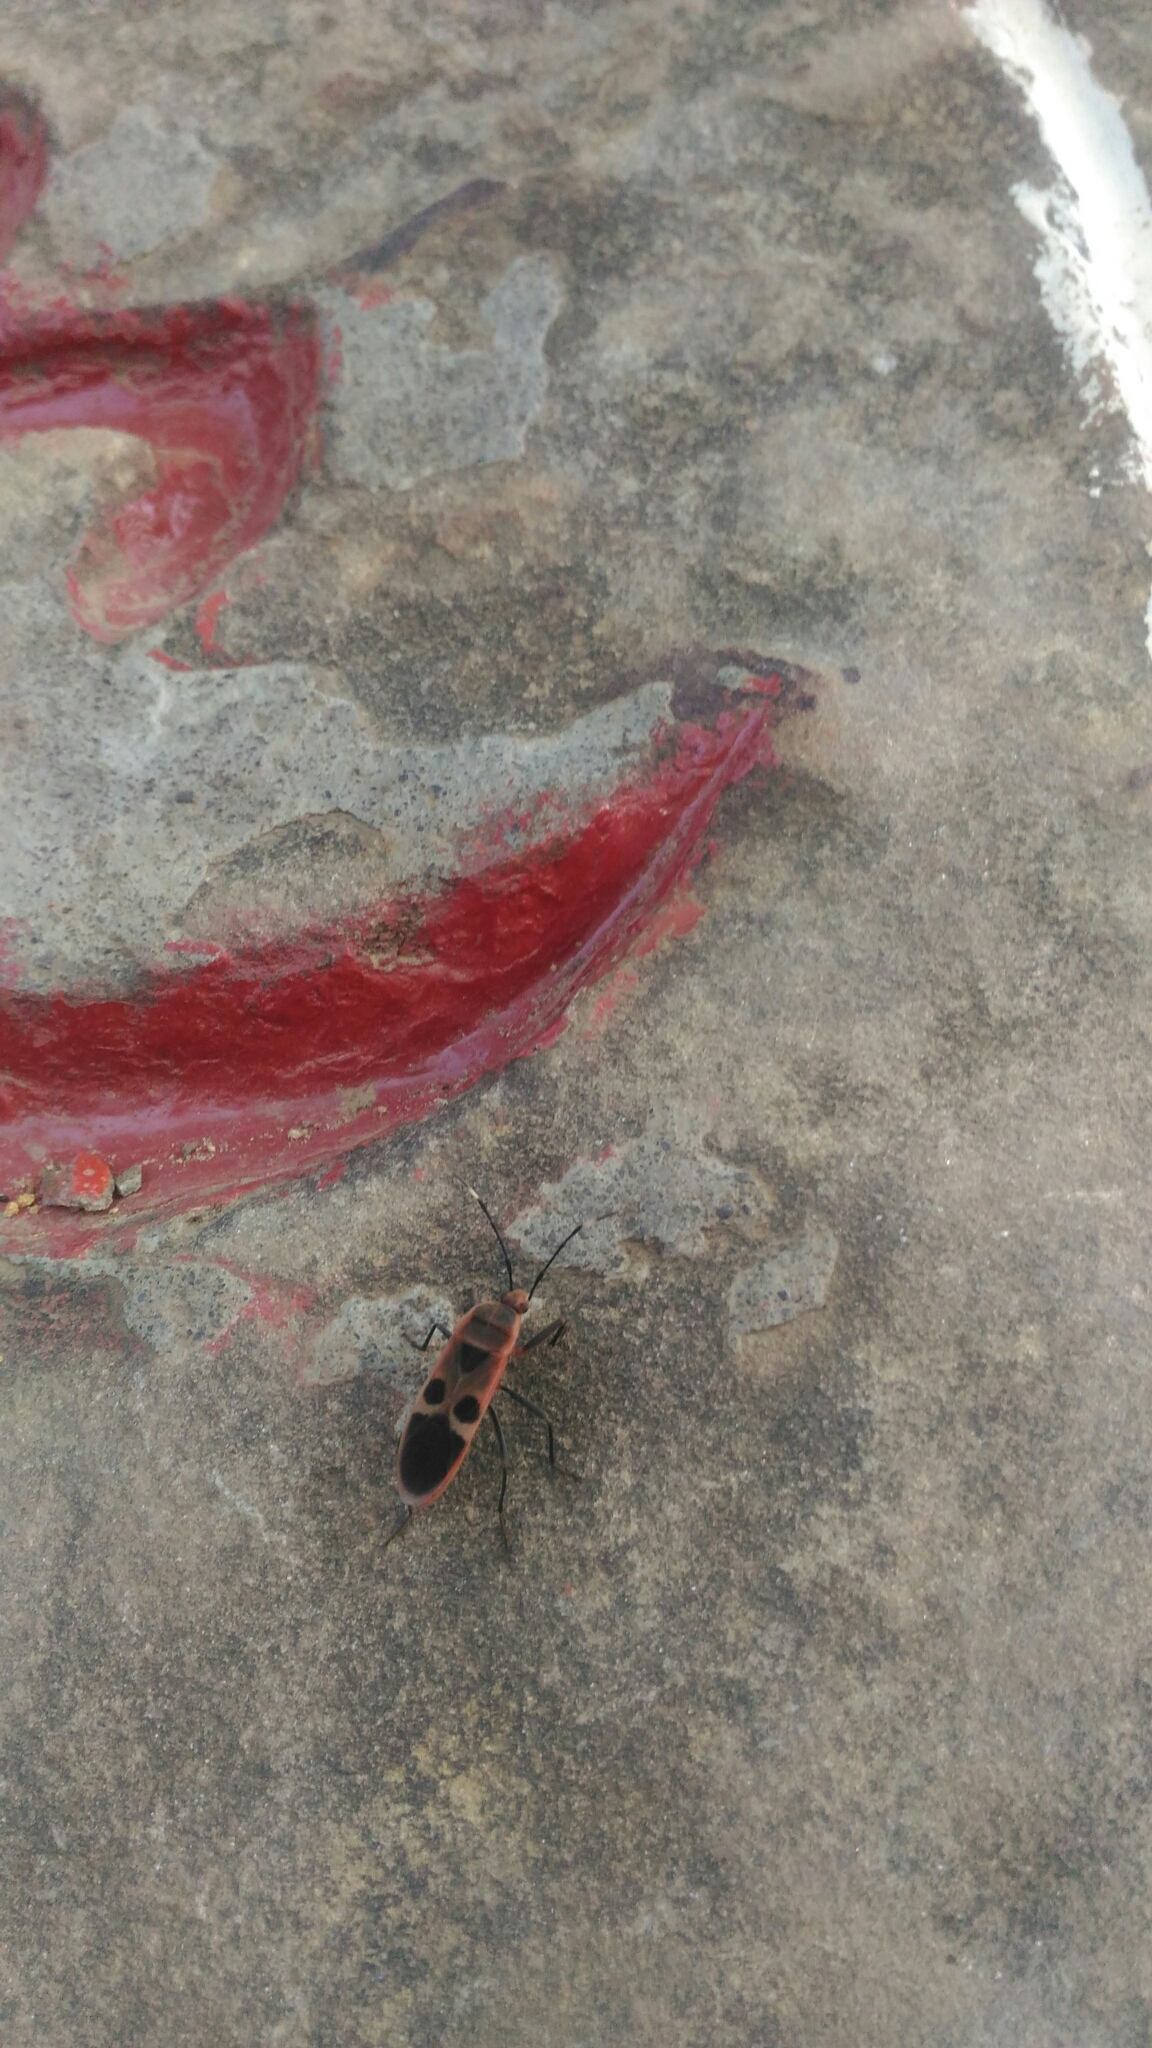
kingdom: Animalia
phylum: Arthropoda
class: Insecta
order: Hemiptera
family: Largidae
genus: Physopelta
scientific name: Physopelta gutta
